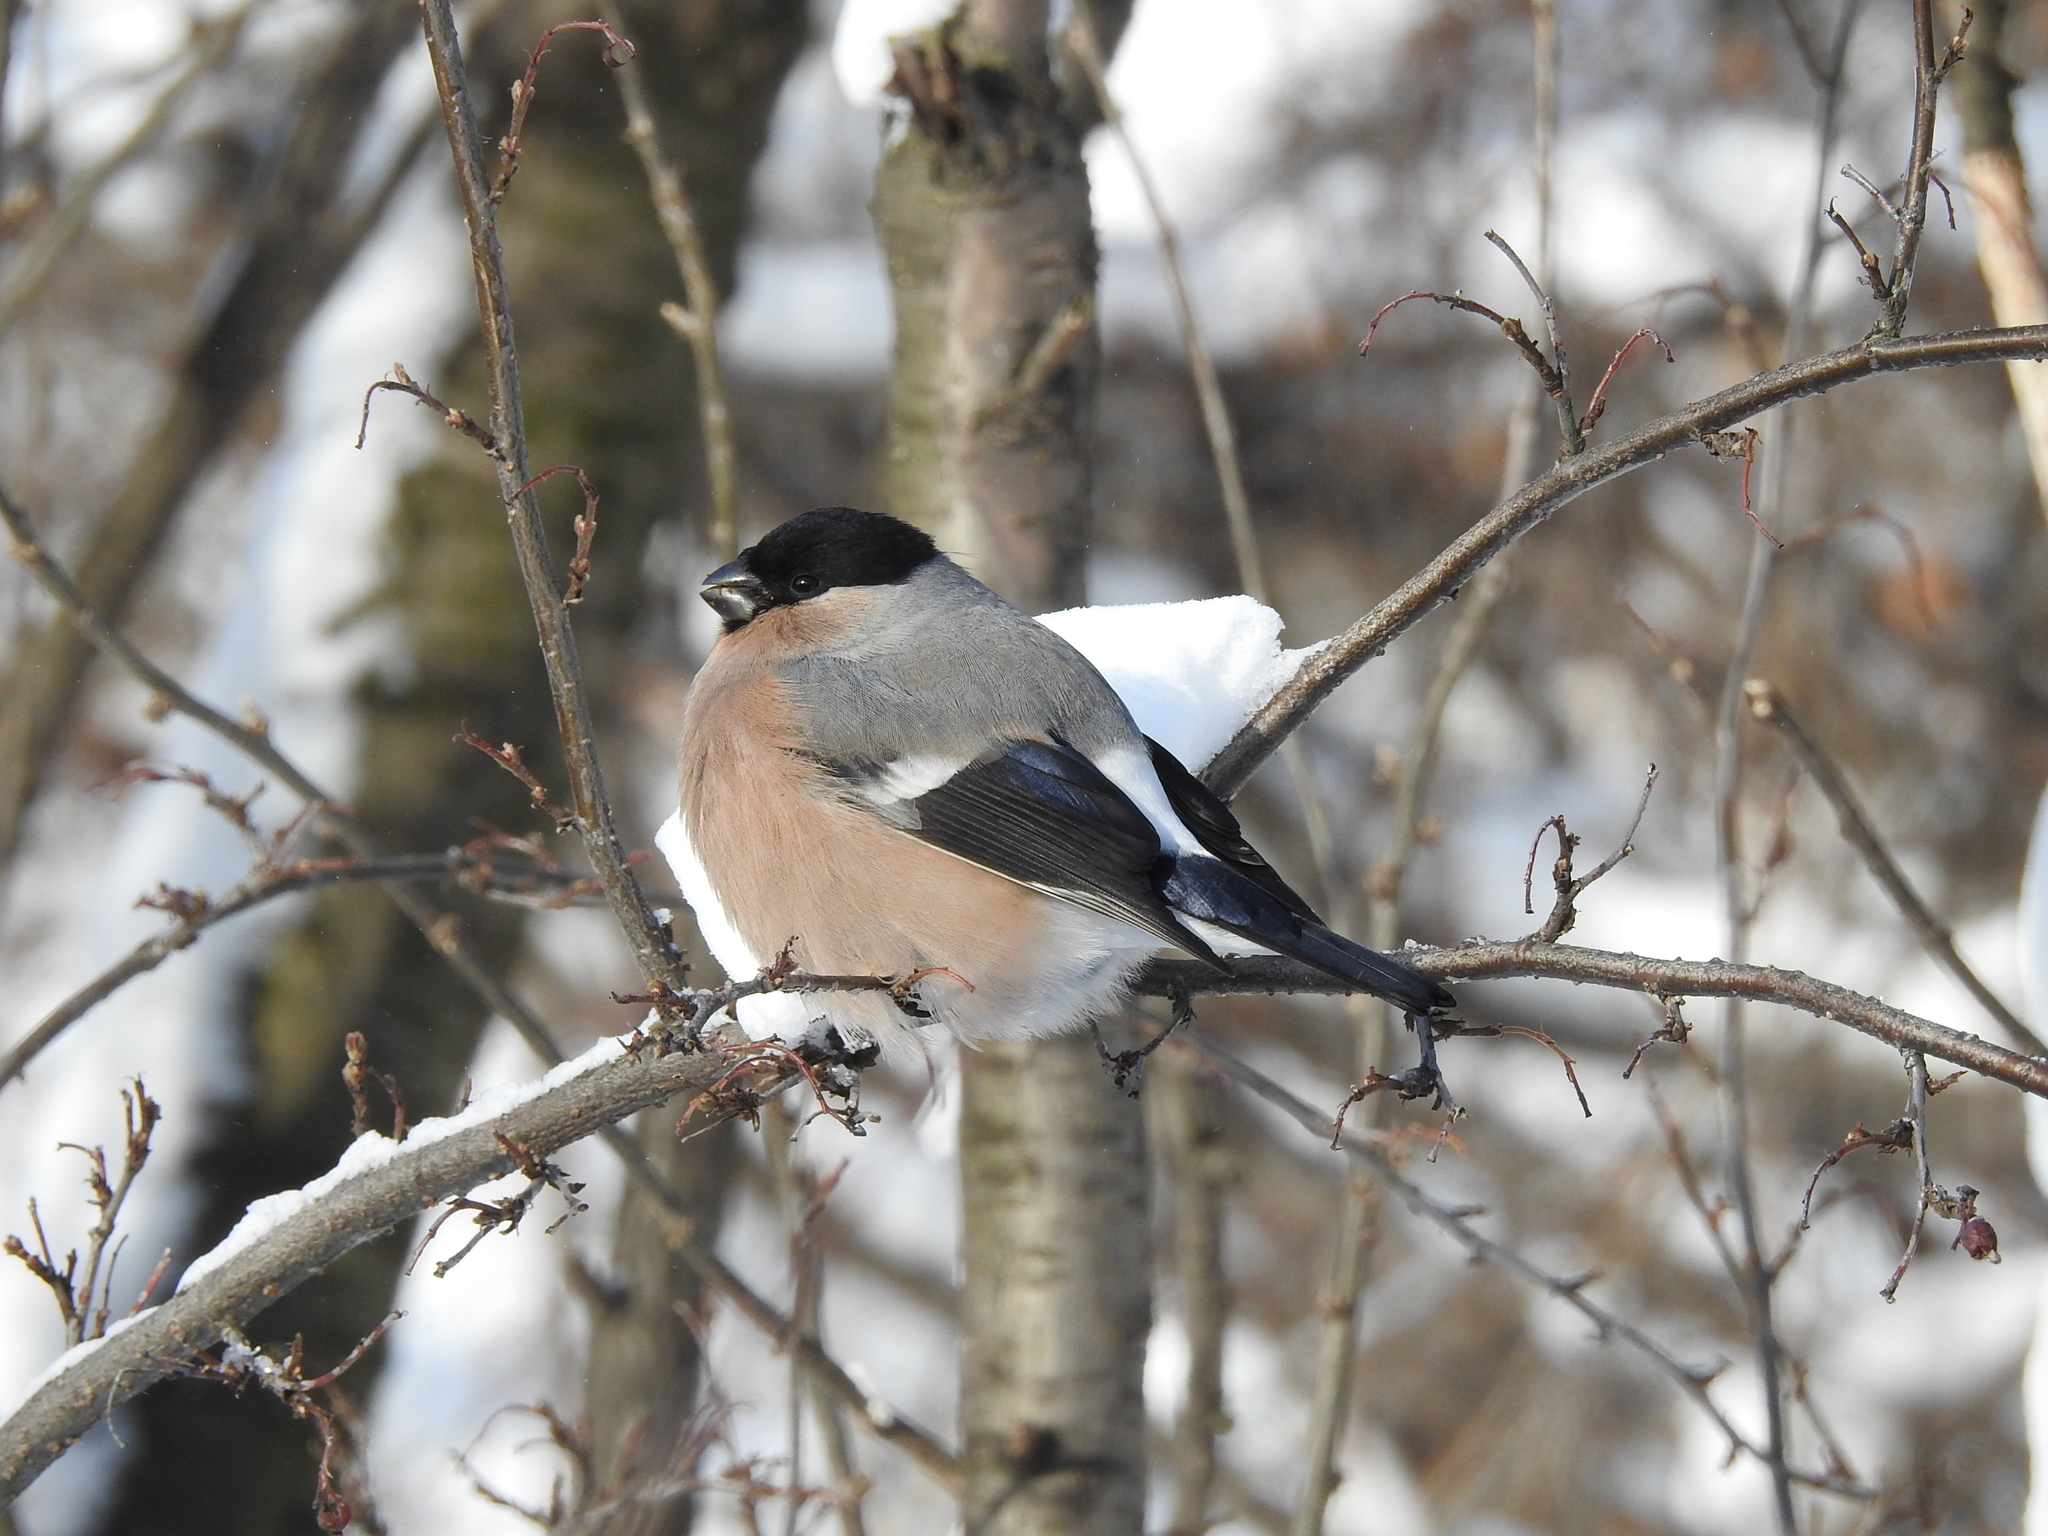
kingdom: Animalia
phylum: Chordata
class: Aves
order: Passeriformes
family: Fringillidae
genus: Pyrrhula
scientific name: Pyrrhula pyrrhula
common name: Eurasian bullfinch
